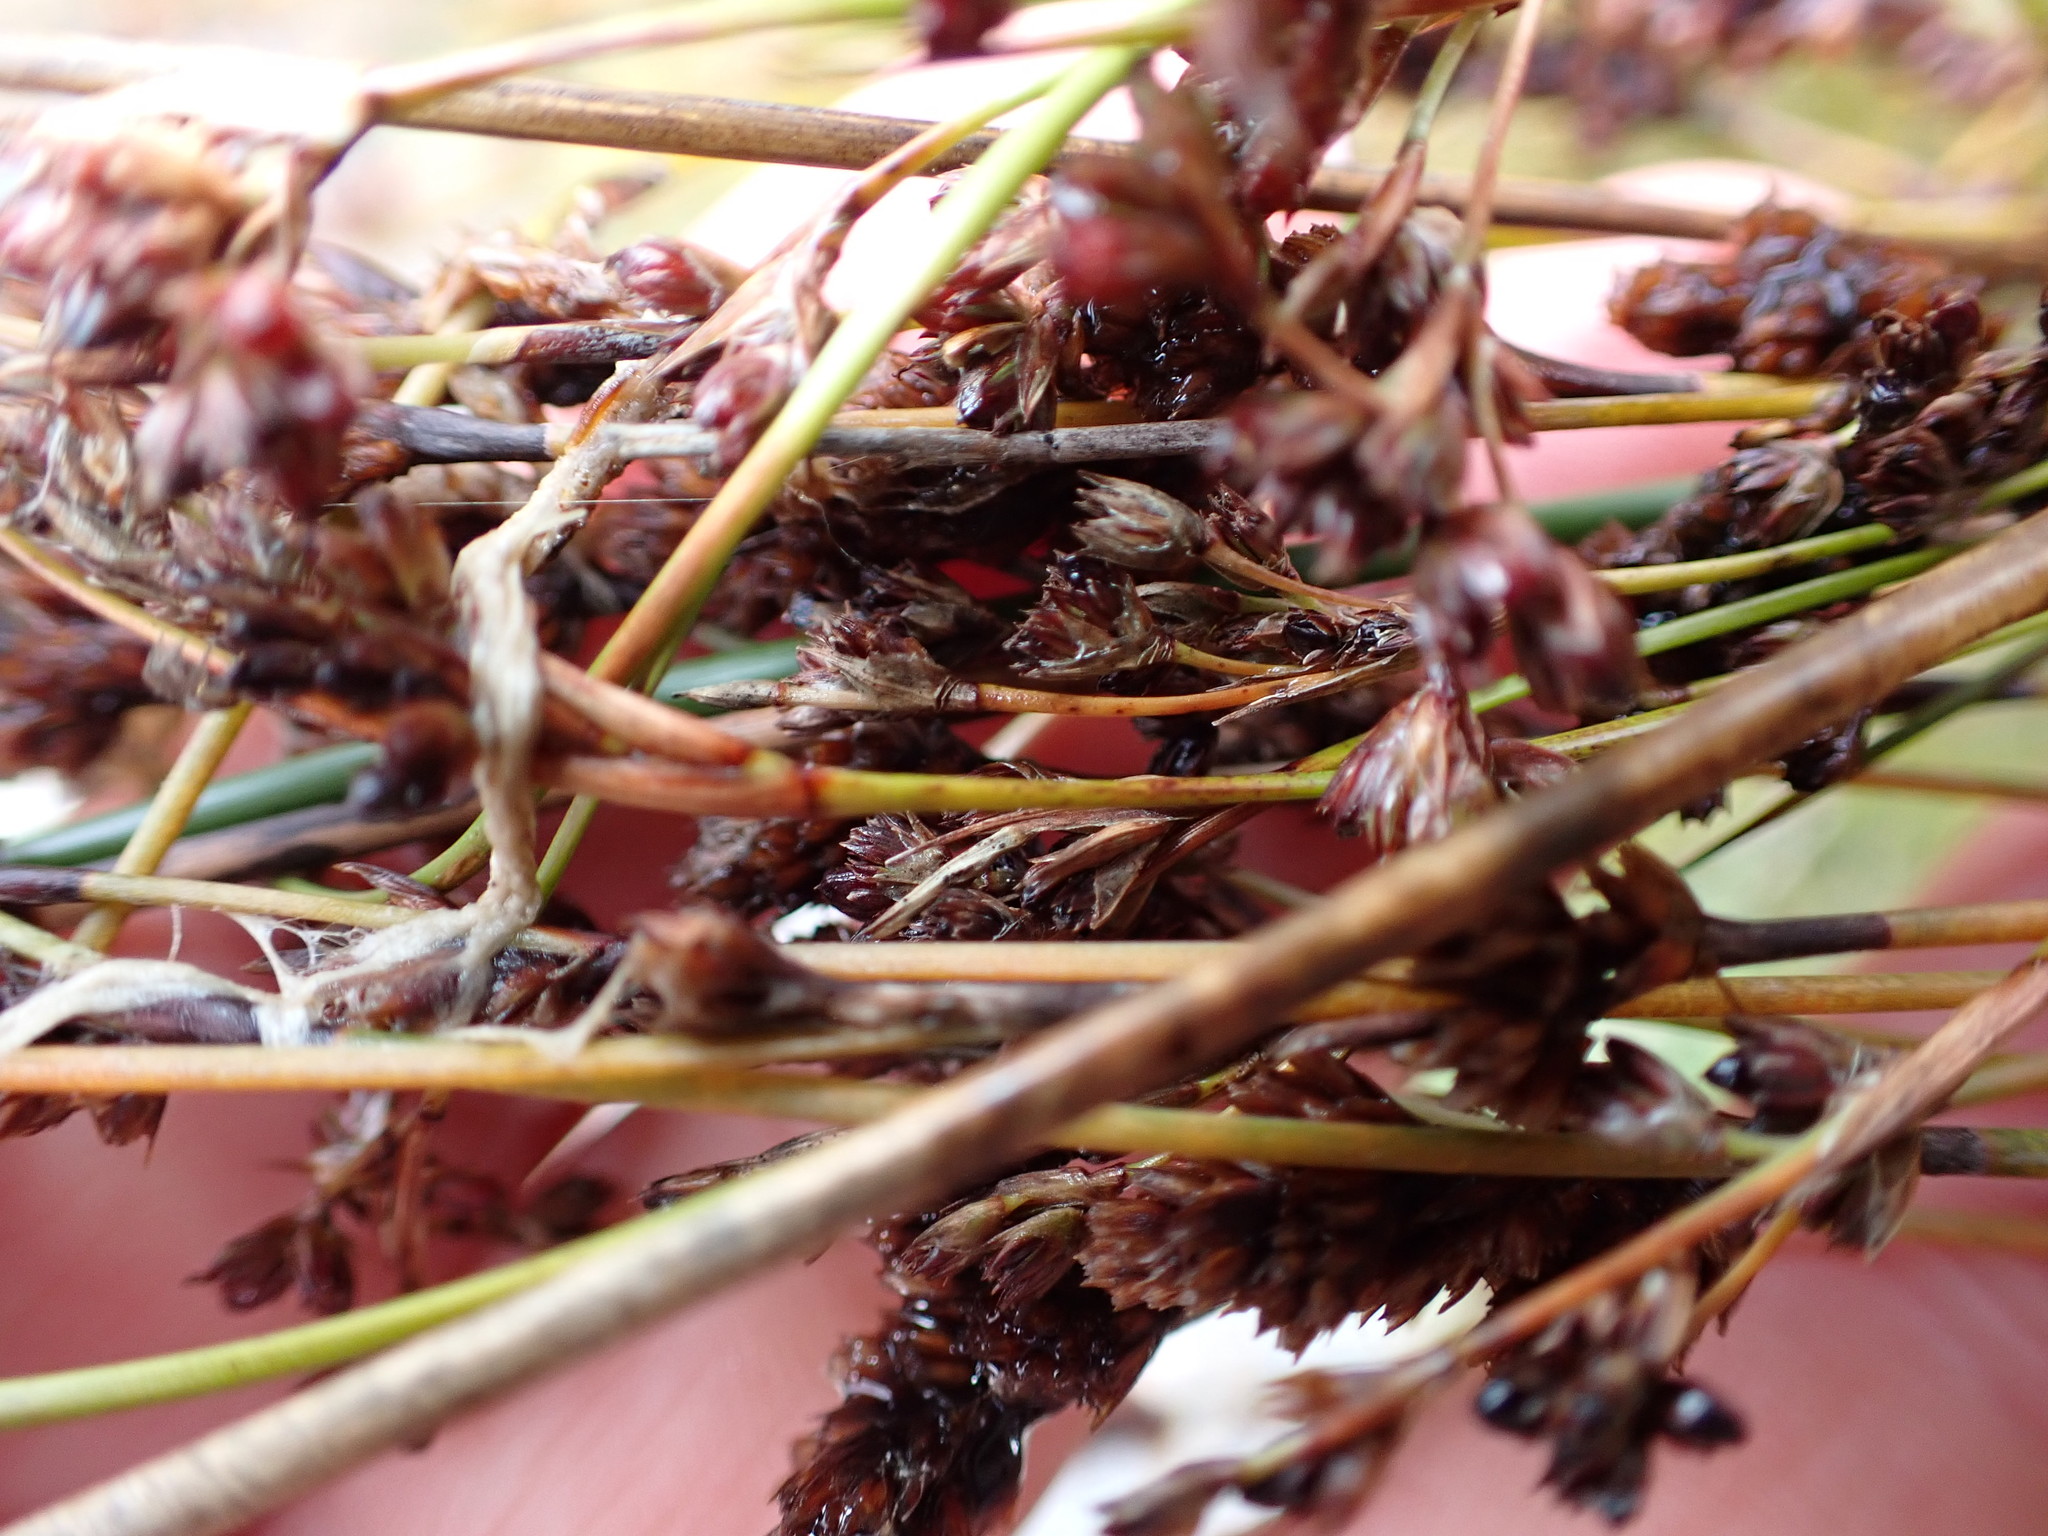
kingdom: Plantae
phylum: Tracheophyta
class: Liliopsida
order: Poales
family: Juncaceae
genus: Juncus
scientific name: Juncus kraussii
